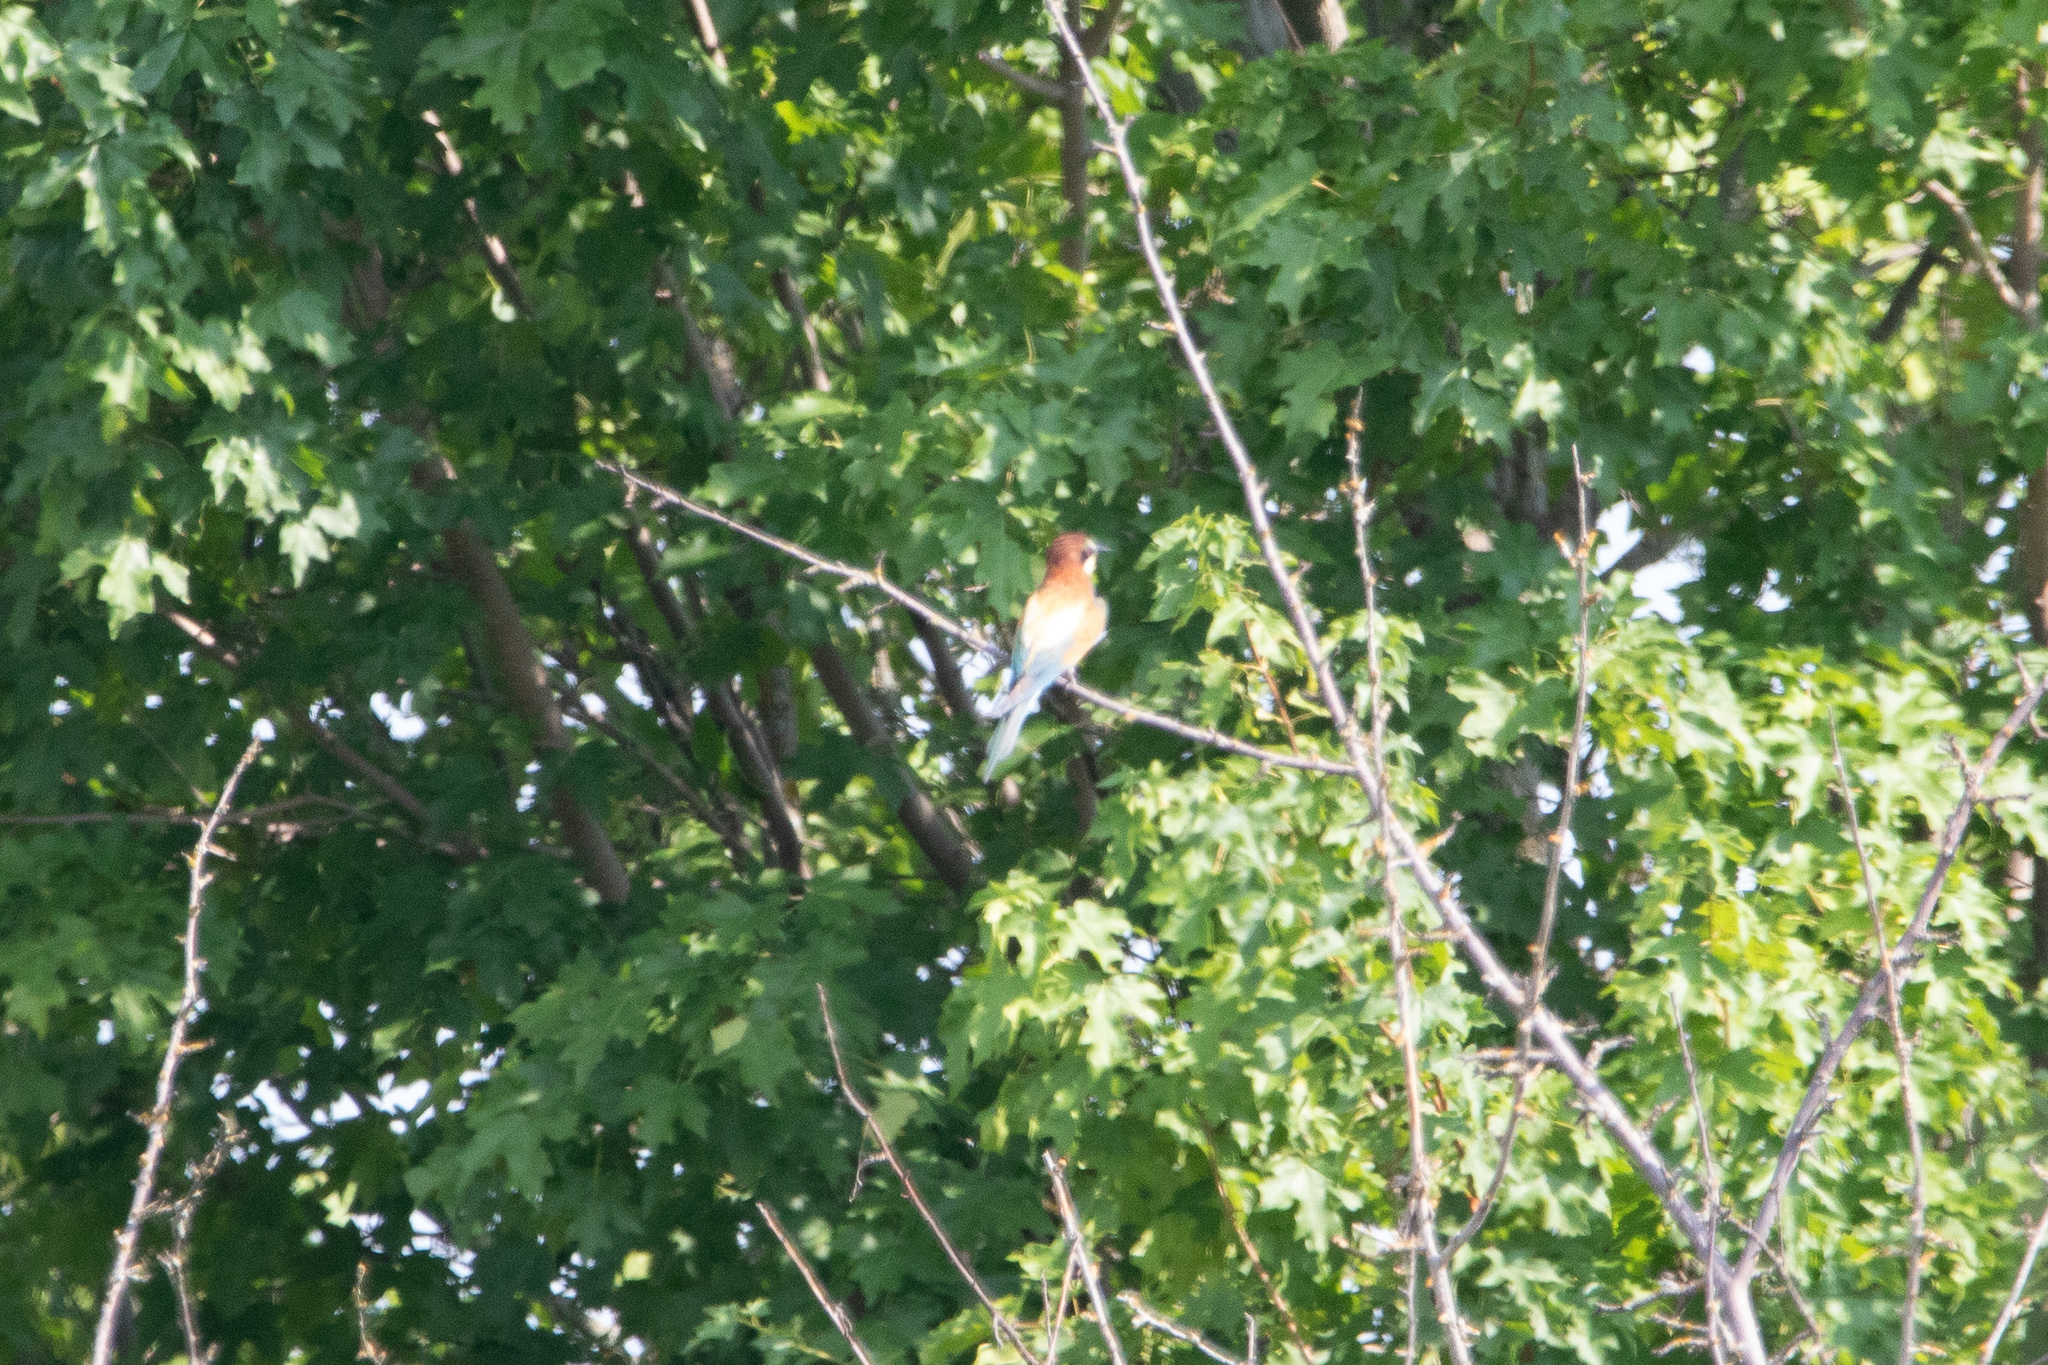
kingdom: Animalia
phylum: Chordata
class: Aves
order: Coraciiformes
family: Meropidae
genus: Merops
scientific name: Merops apiaster
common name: European bee-eater
